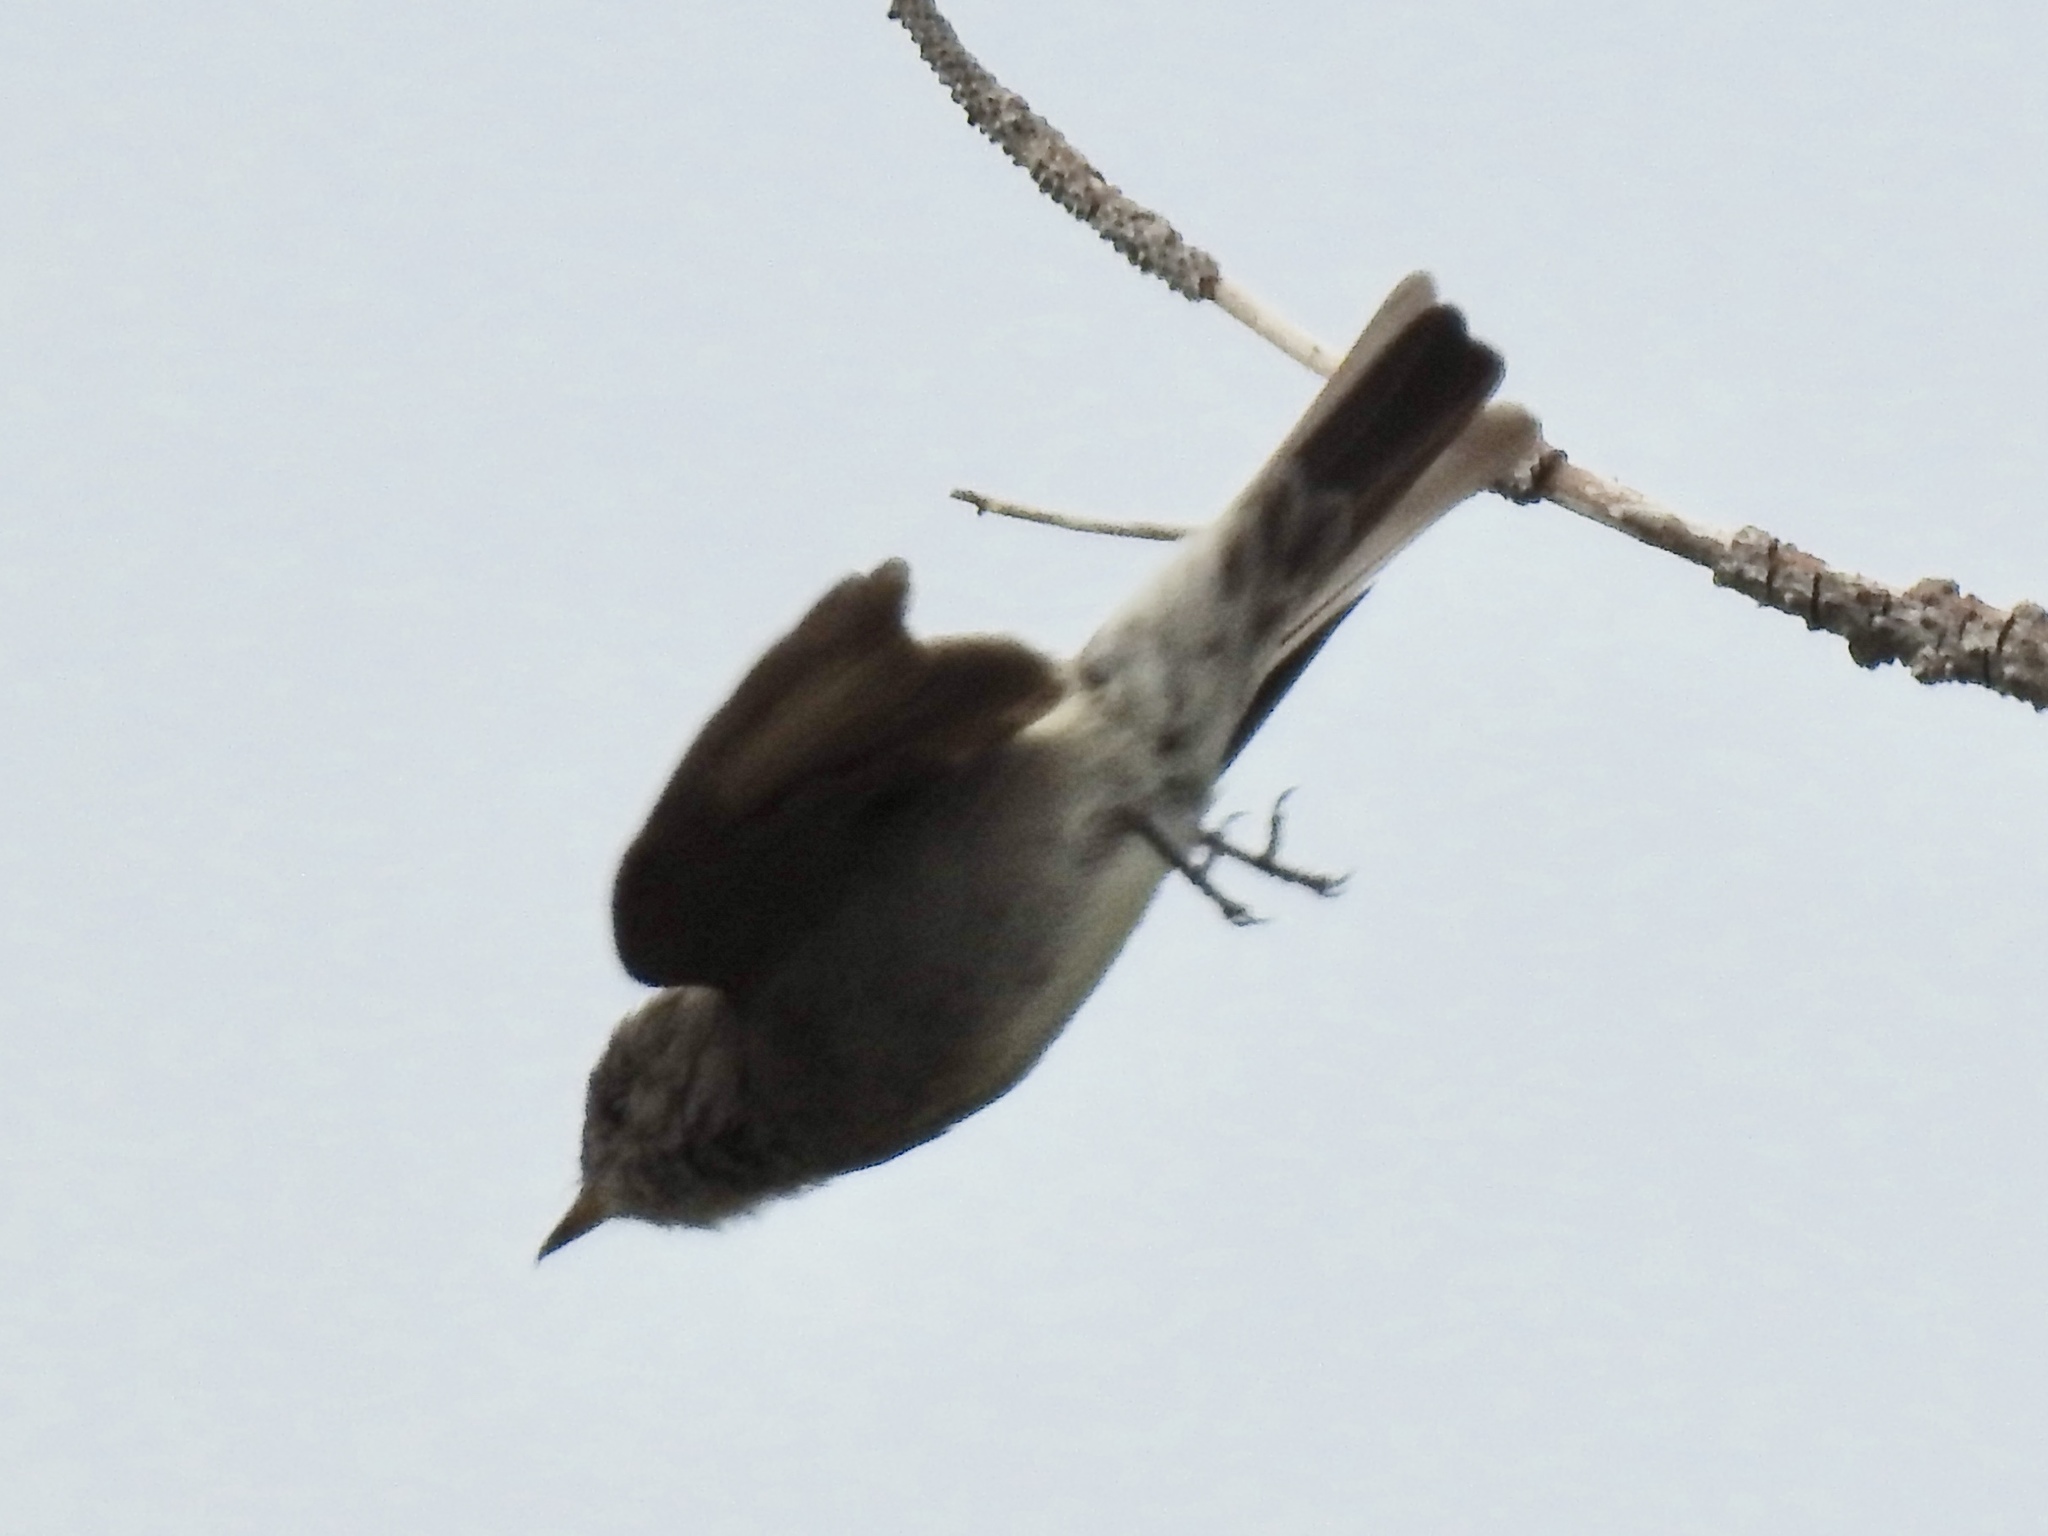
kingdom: Animalia
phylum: Chordata
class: Aves
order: Passeriformes
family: Tyrannidae
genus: Contopus
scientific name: Contopus sordidulus
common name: Western wood-pewee
